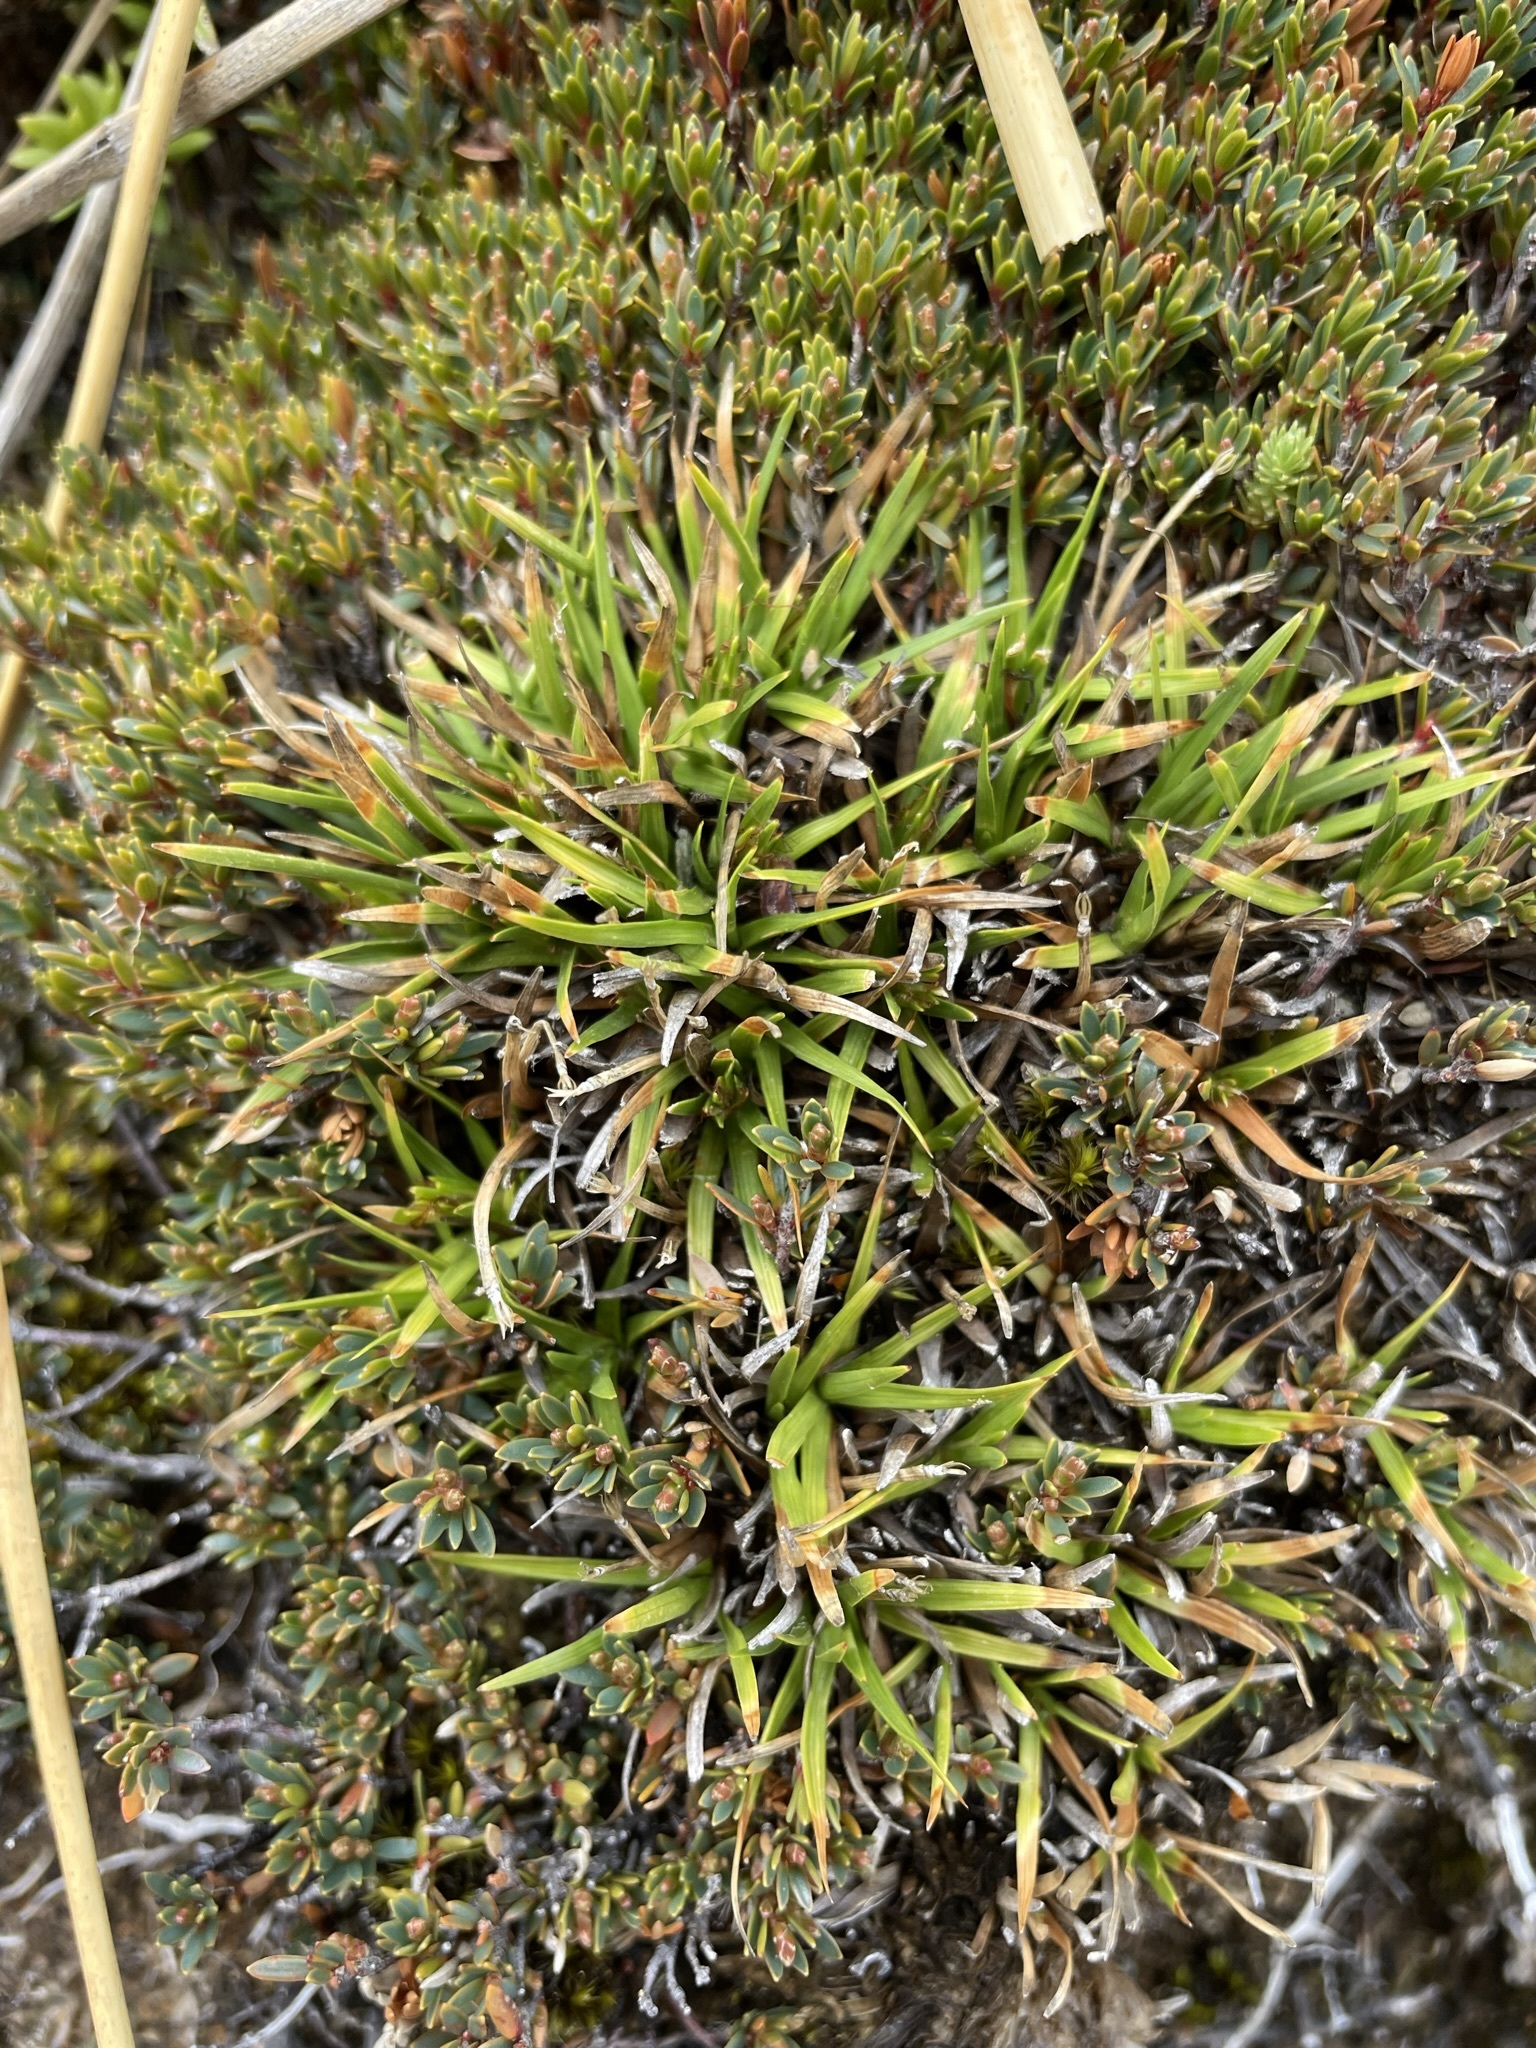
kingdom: Plantae
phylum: Tracheophyta
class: Liliopsida
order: Poales
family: Cyperaceae
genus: Oreobolus
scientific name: Oreobolus pectinatus
